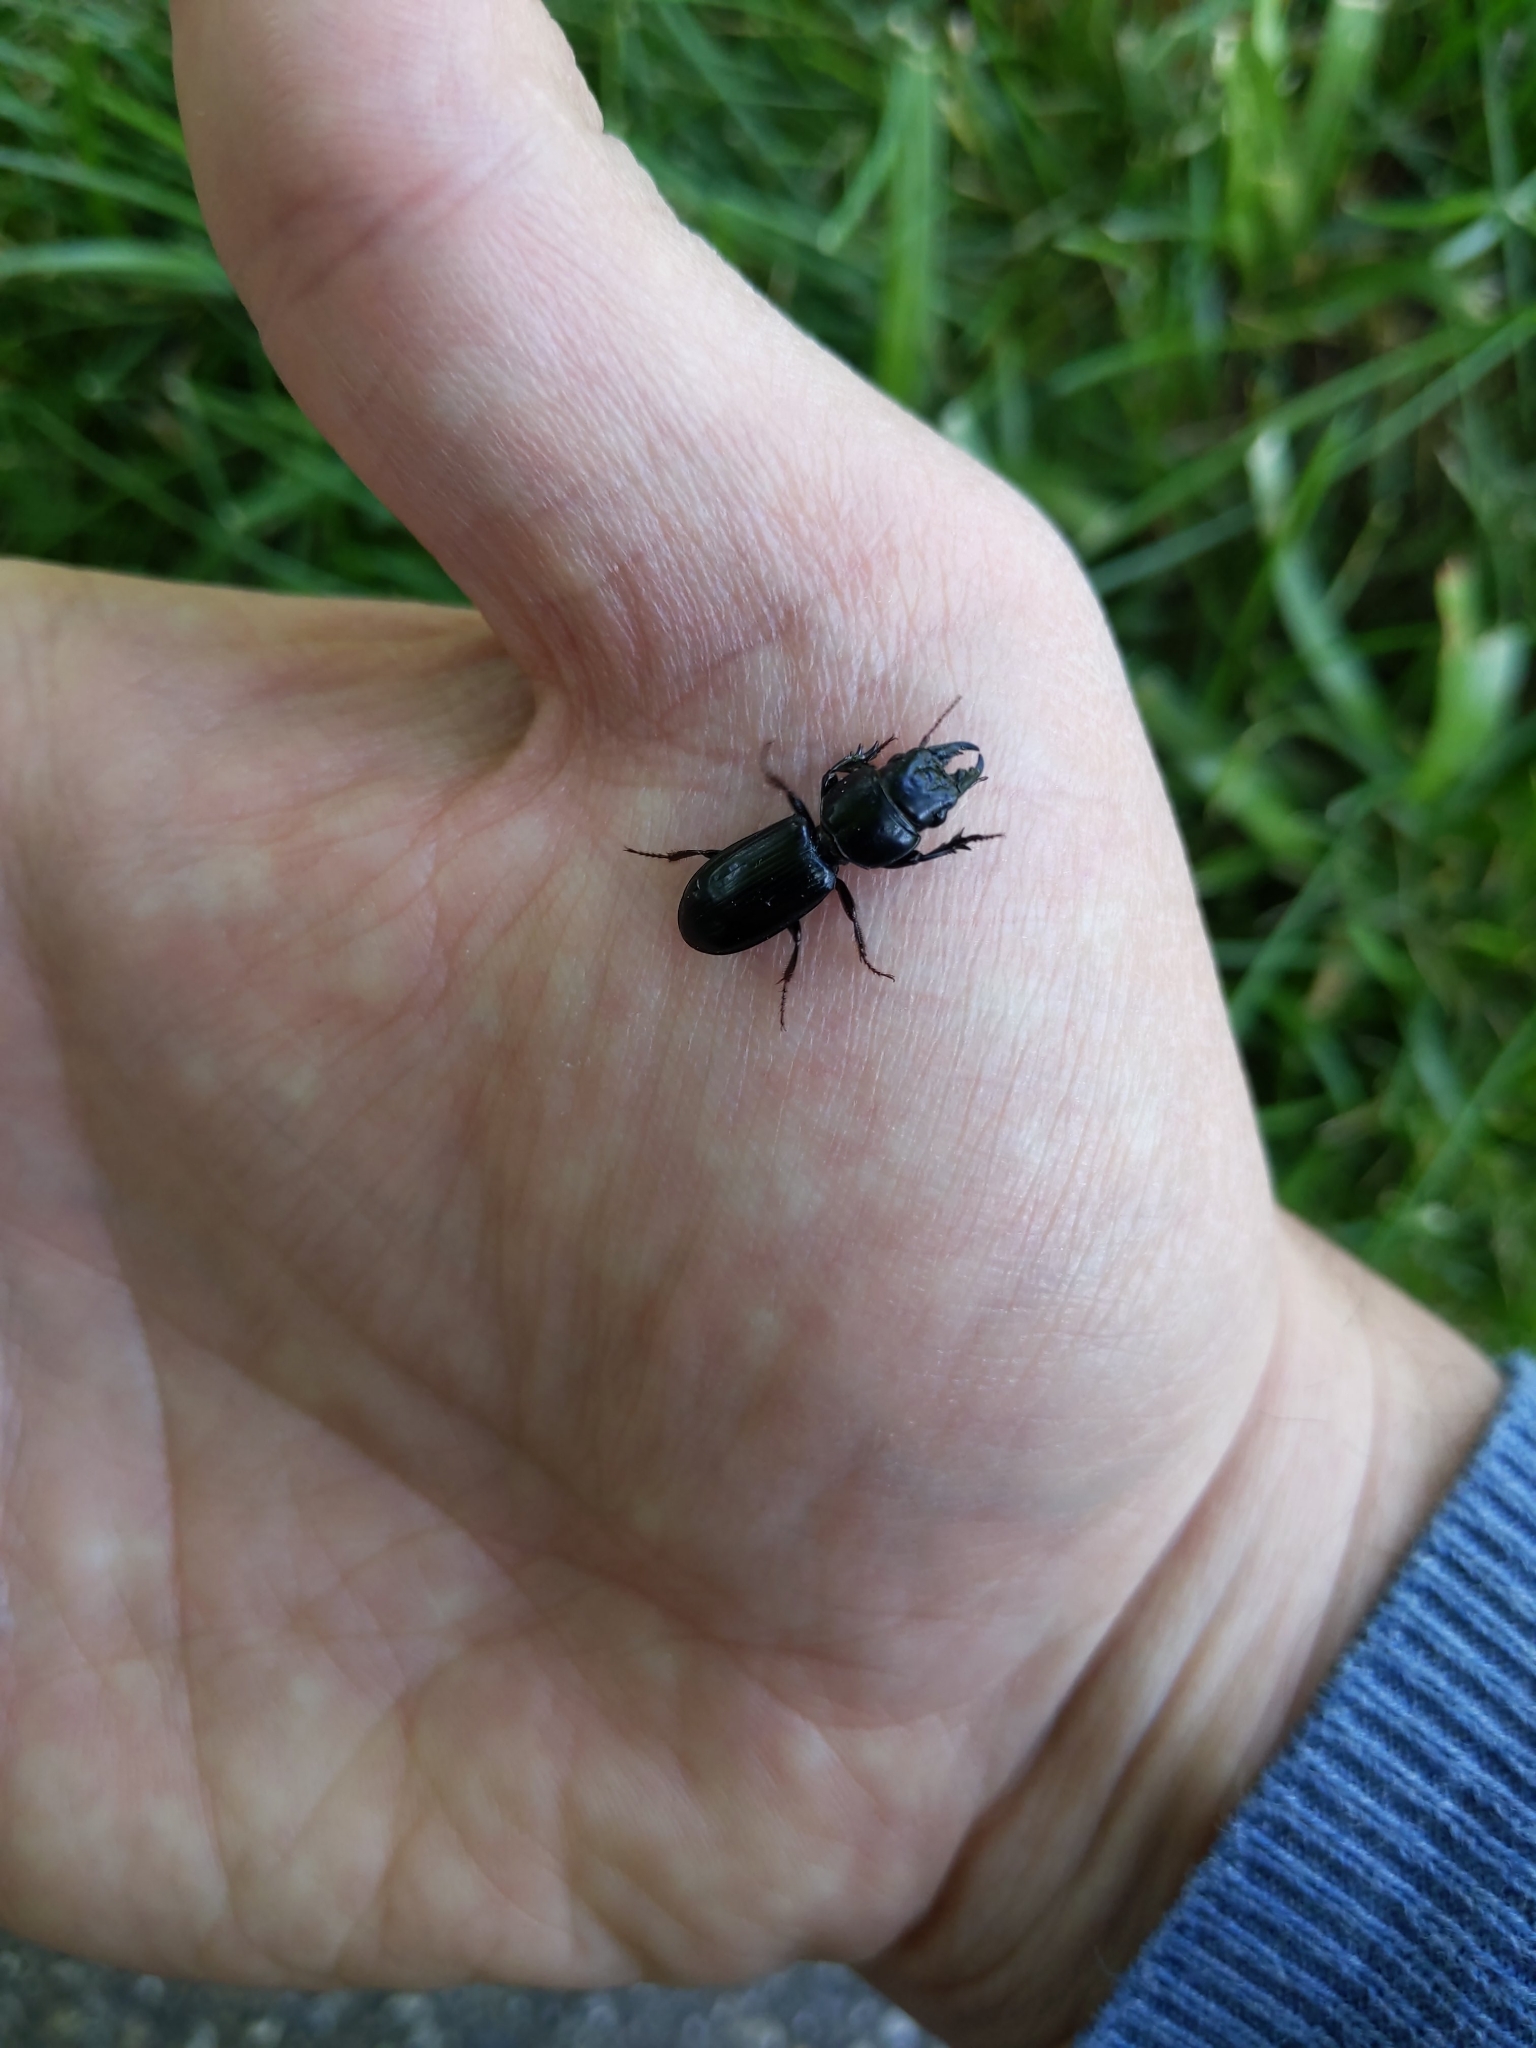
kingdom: Animalia
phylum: Arthropoda
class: Insecta
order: Coleoptera
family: Carabidae
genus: Scarites
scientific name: Scarites subterraneus
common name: Big-headed ground beetle
